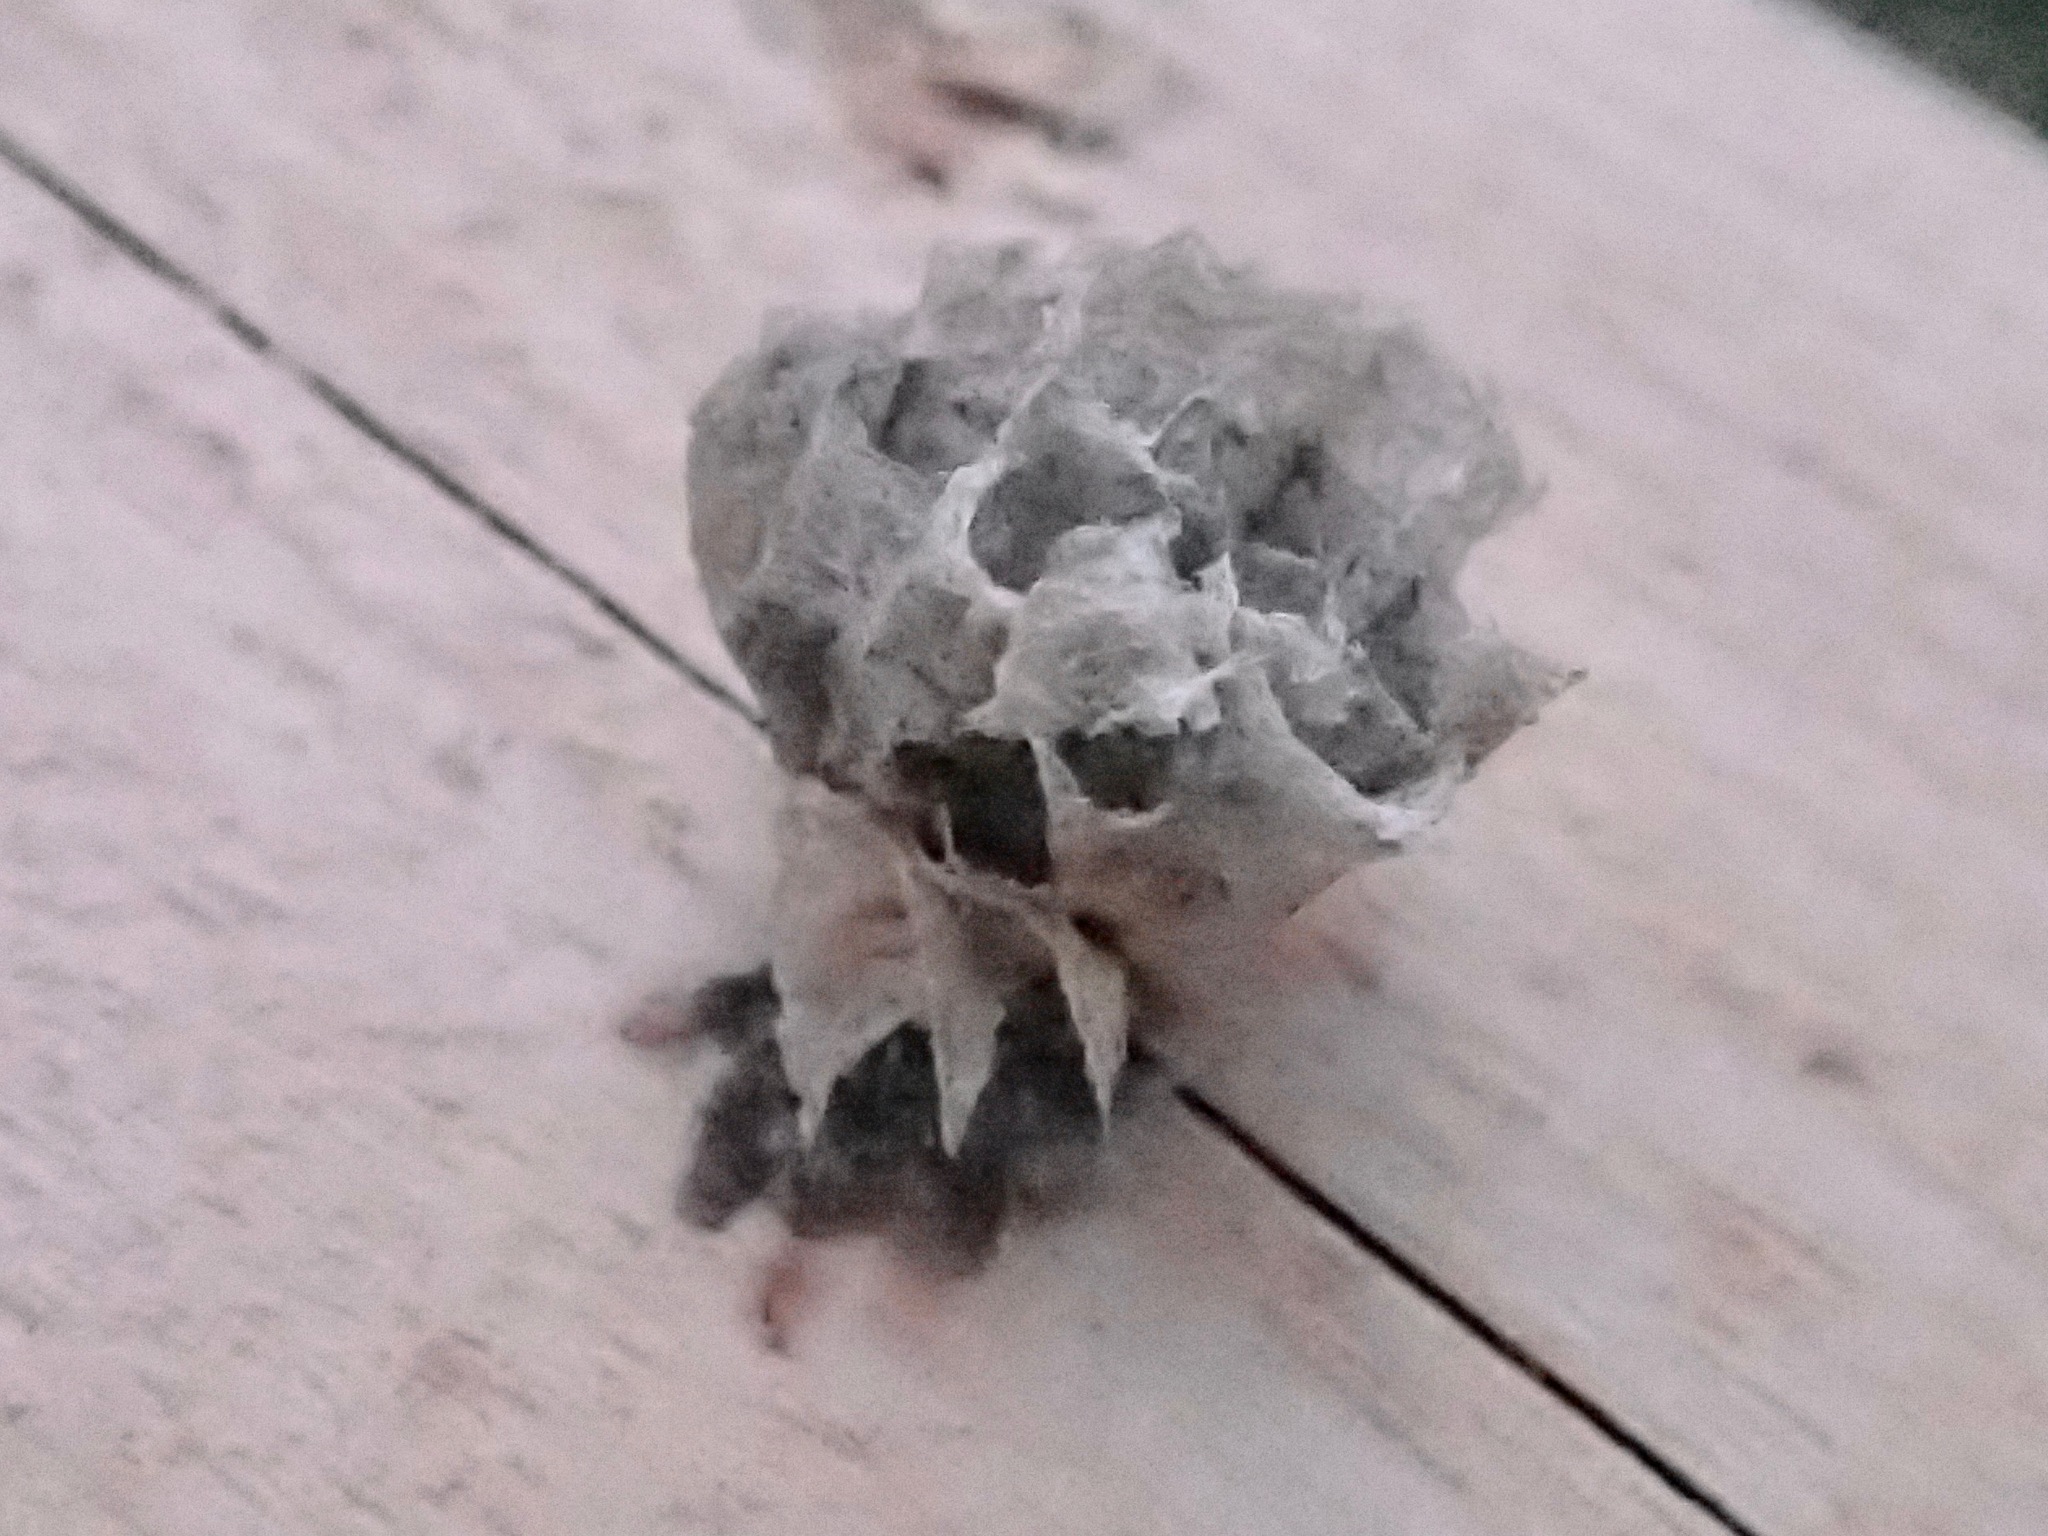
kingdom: Animalia
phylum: Arthropoda
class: Insecta
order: Hymenoptera
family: Eumenidae
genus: Polistes
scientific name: Polistes
